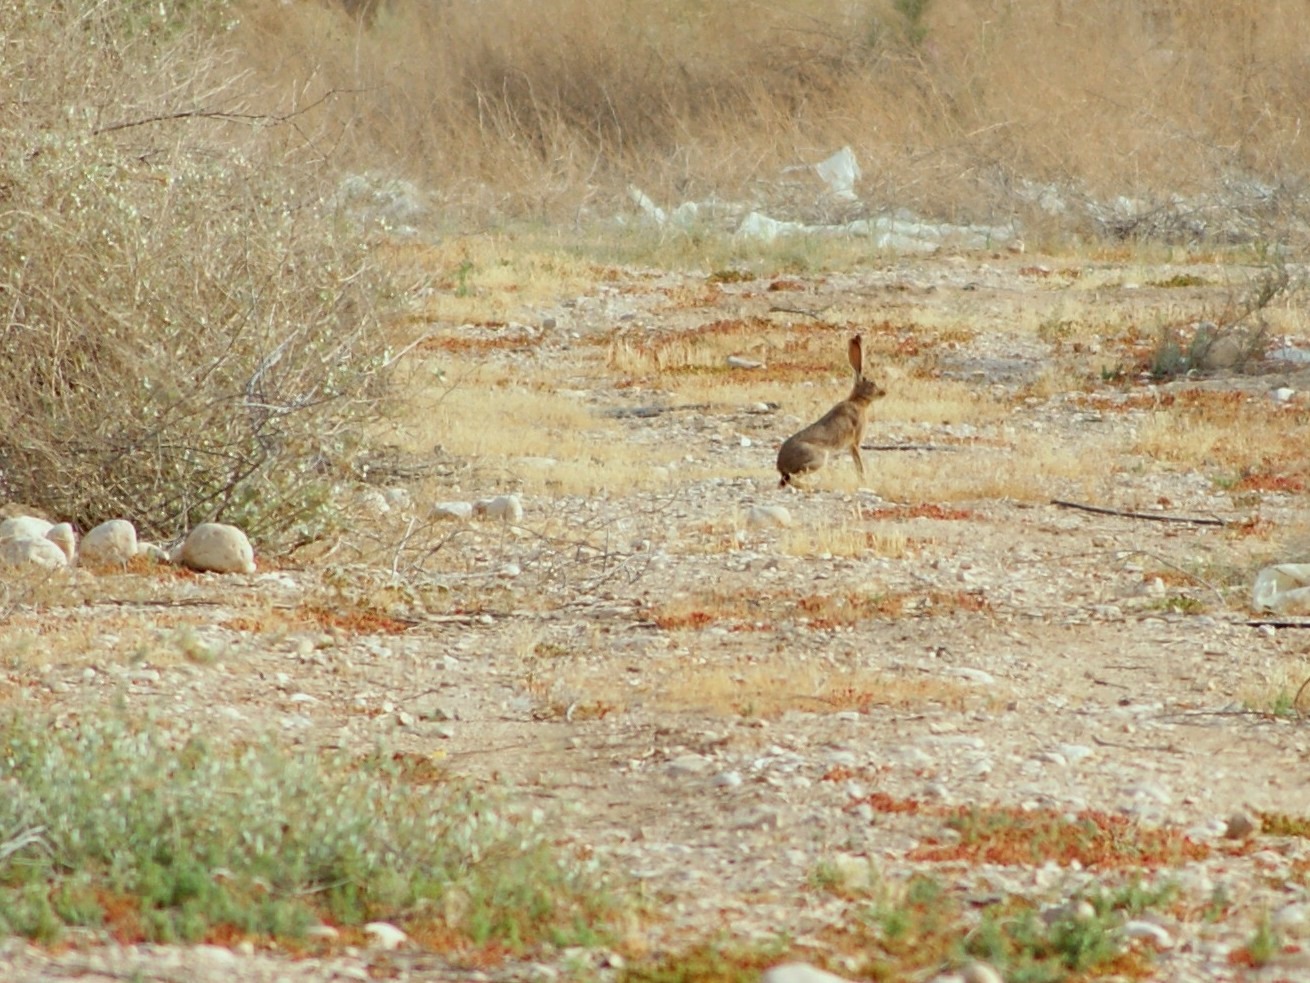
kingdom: Animalia
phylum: Chordata
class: Mammalia
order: Lagomorpha
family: Leporidae
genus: Lepus
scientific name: Lepus capensis
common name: Cape hare
